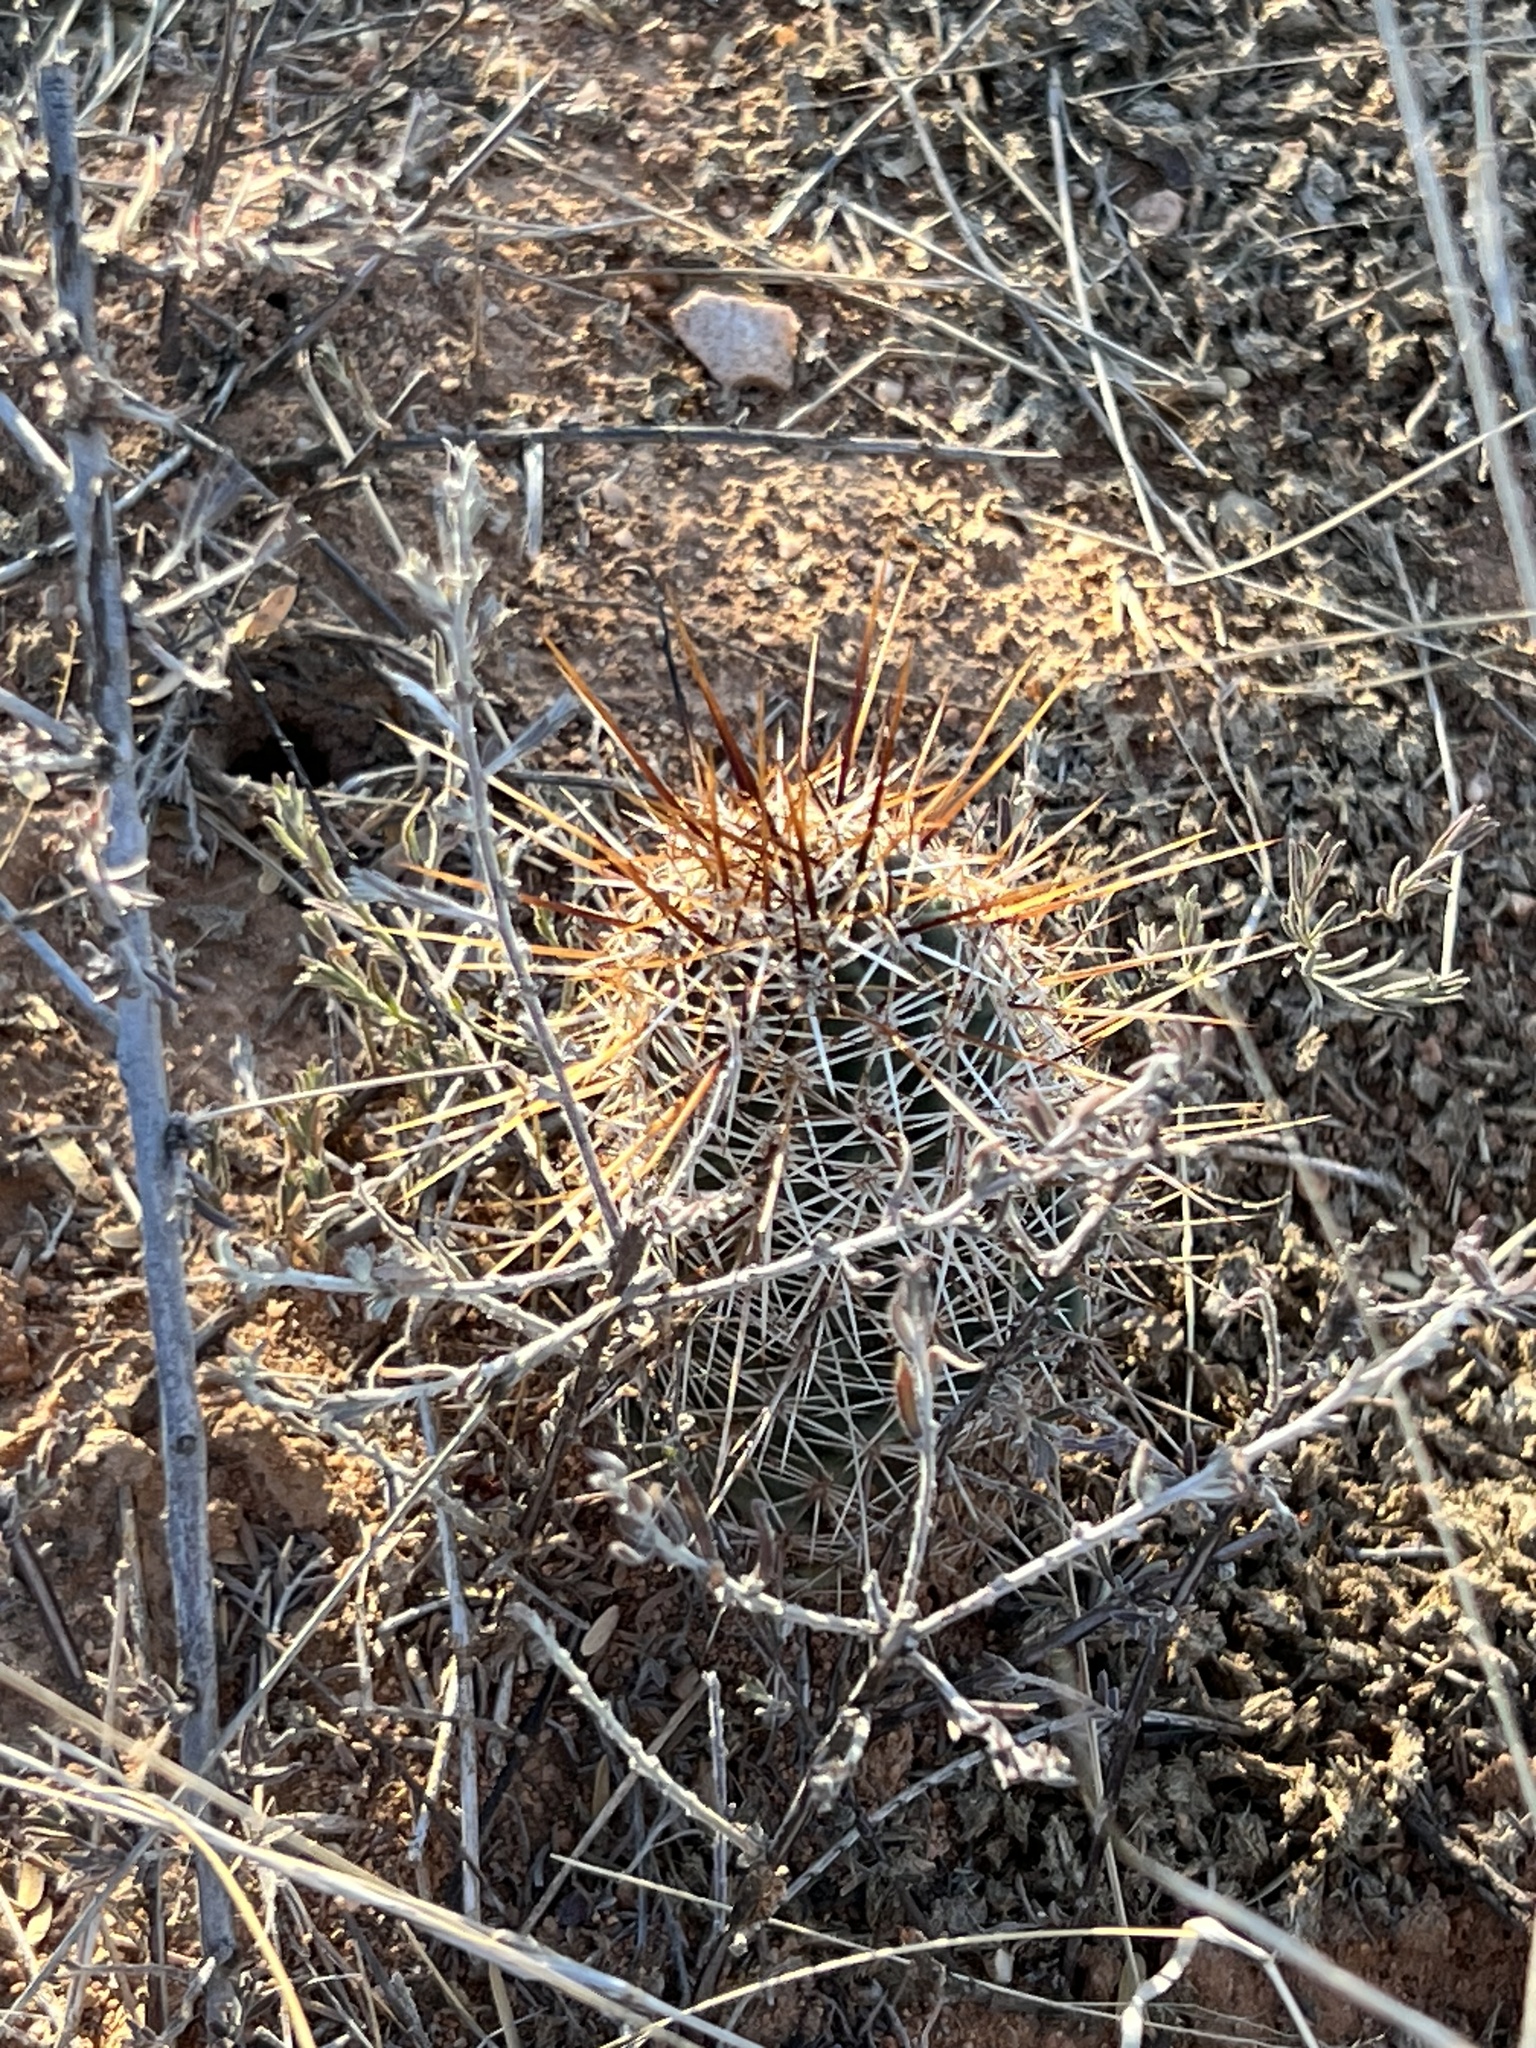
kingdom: Plantae
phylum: Tracheophyta
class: Magnoliopsida
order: Caryophyllales
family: Cactaceae
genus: Echinocereus
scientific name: Echinocereus fasciculatus
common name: Bundle hedgehog
